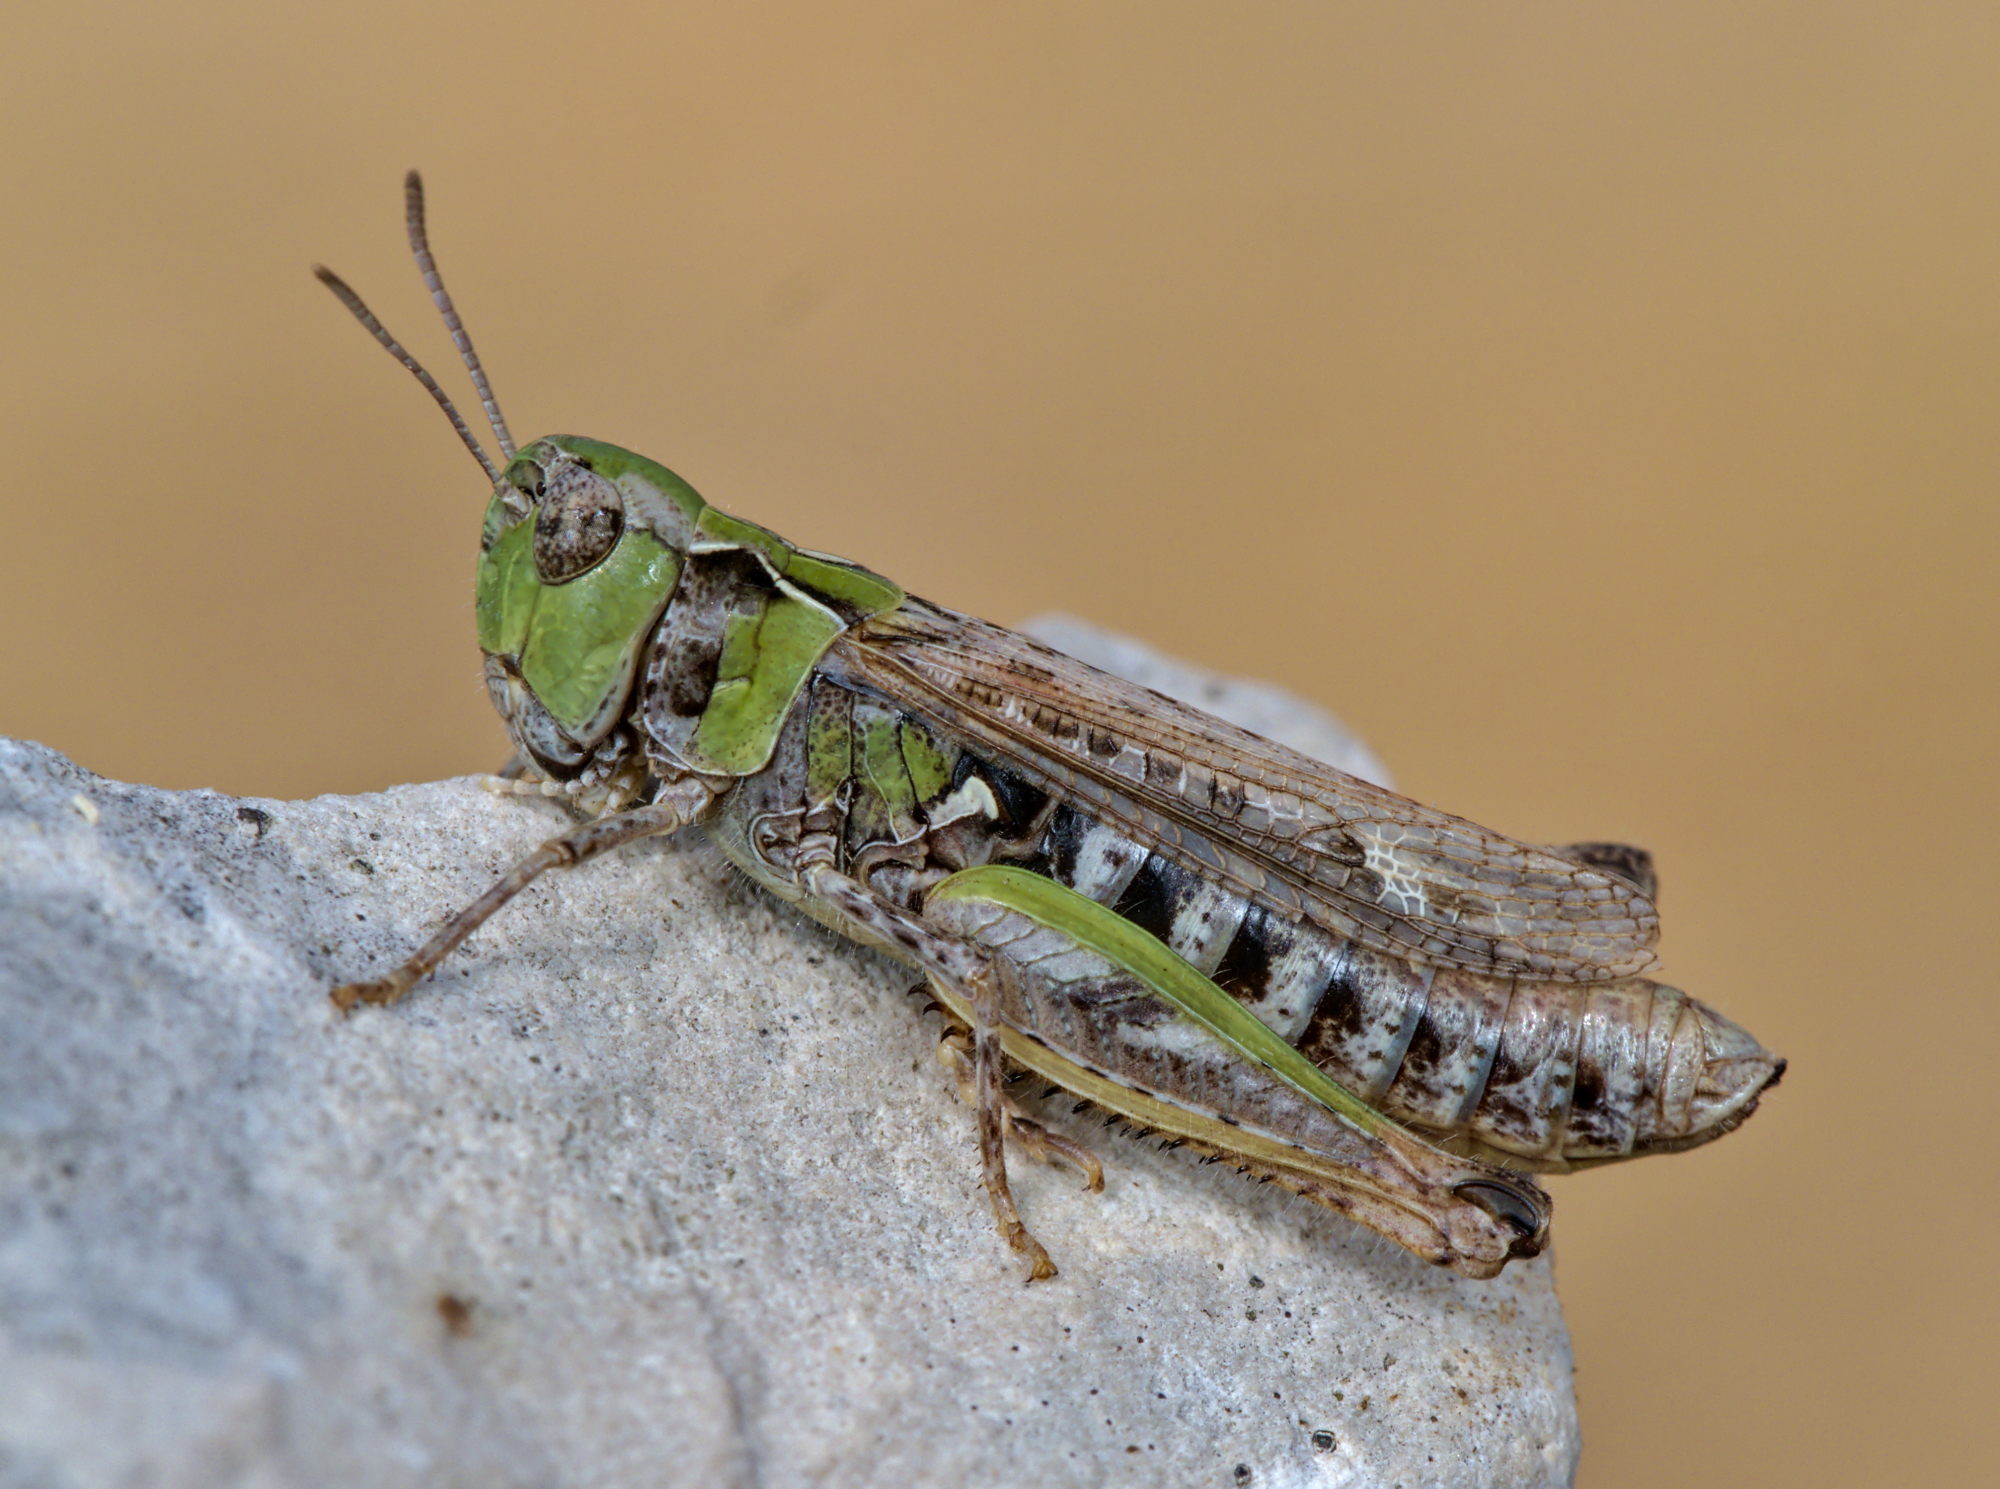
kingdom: Animalia
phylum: Arthropoda
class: Insecta
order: Orthoptera
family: Acrididae
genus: Myrmeleotettix
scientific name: Myrmeleotettix maculatus
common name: Mottled grasshopper
